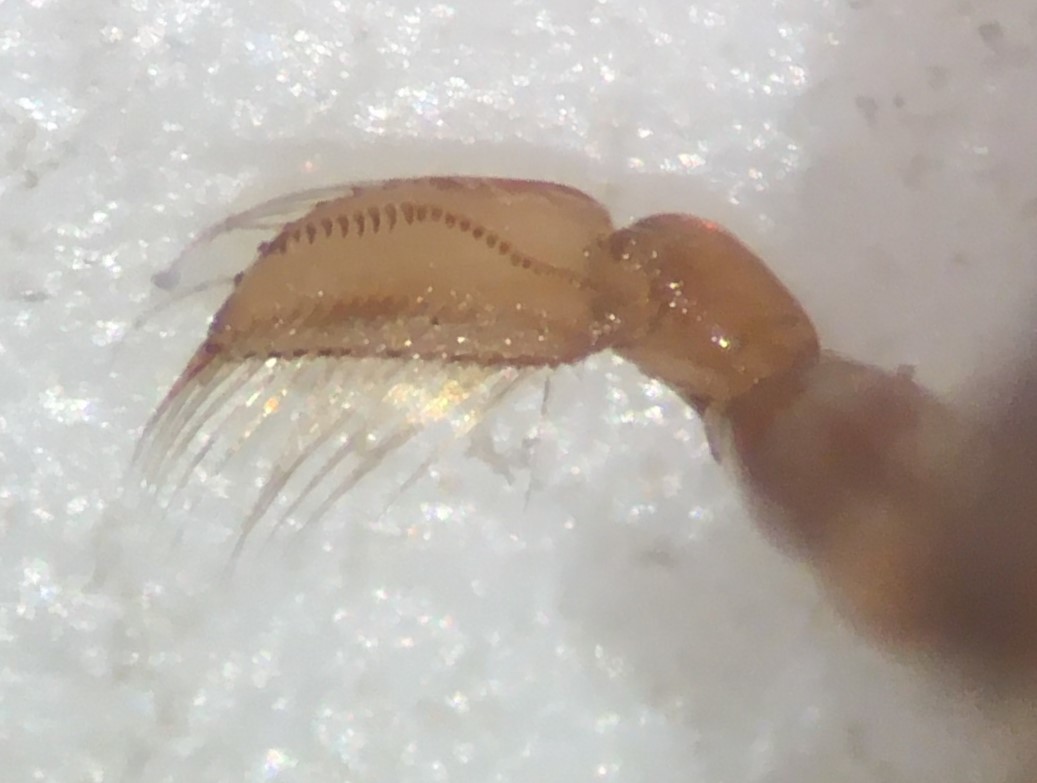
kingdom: Animalia
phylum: Arthropoda
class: Insecta
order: Hemiptera
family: Corixidae
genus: Sigara
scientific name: Sigara hubbelli
